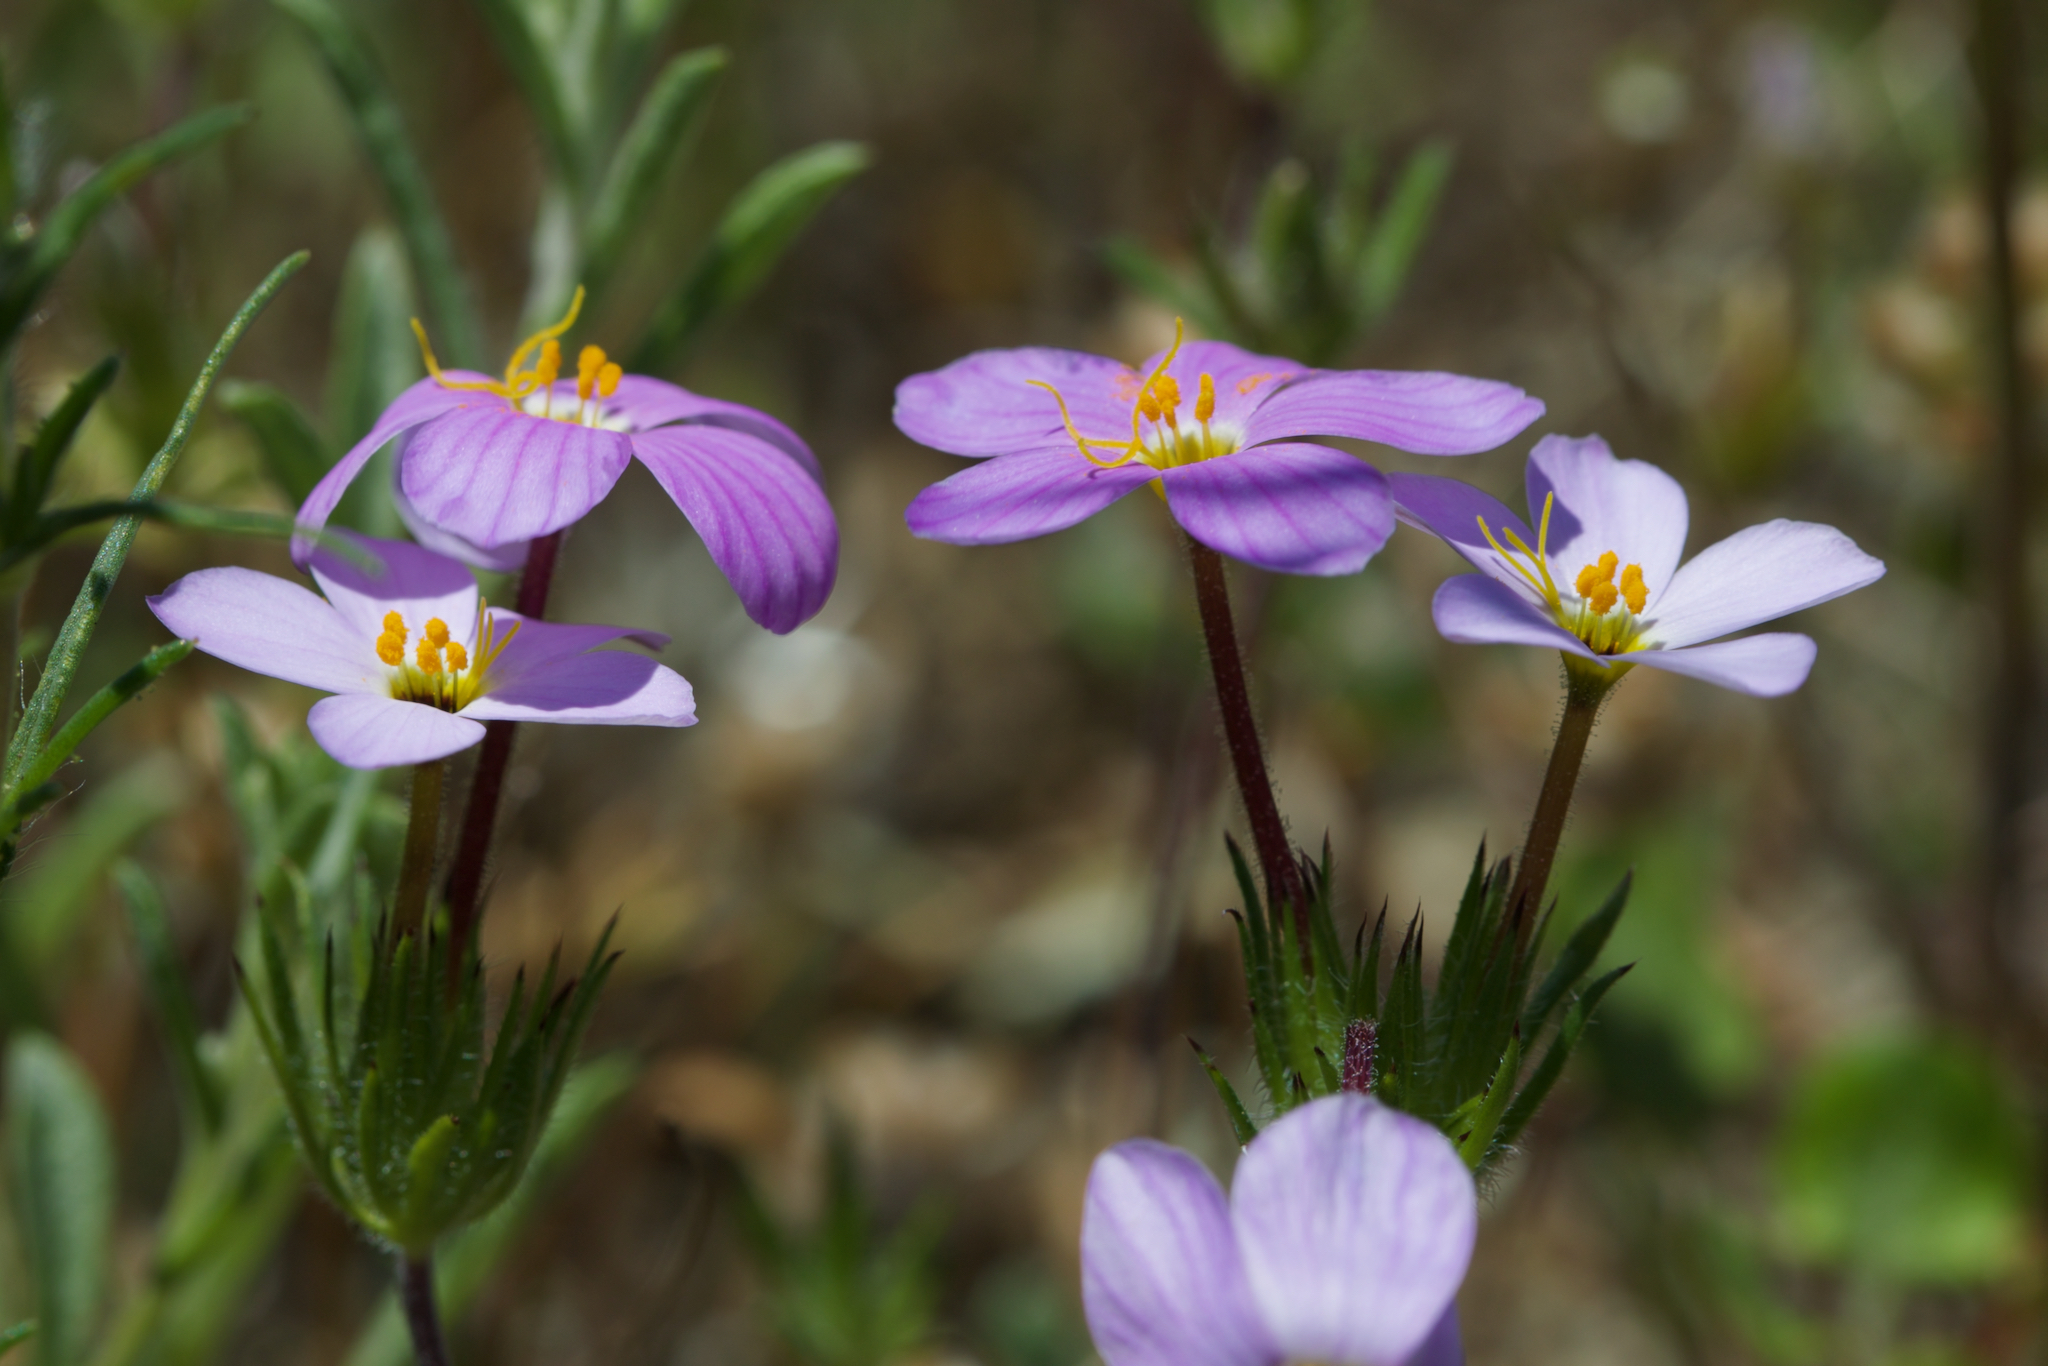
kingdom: Plantae
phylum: Tracheophyta
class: Magnoliopsida
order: Ericales
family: Polemoniaceae
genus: Leptosiphon
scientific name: Leptosiphon androsaceus
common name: False babystars
